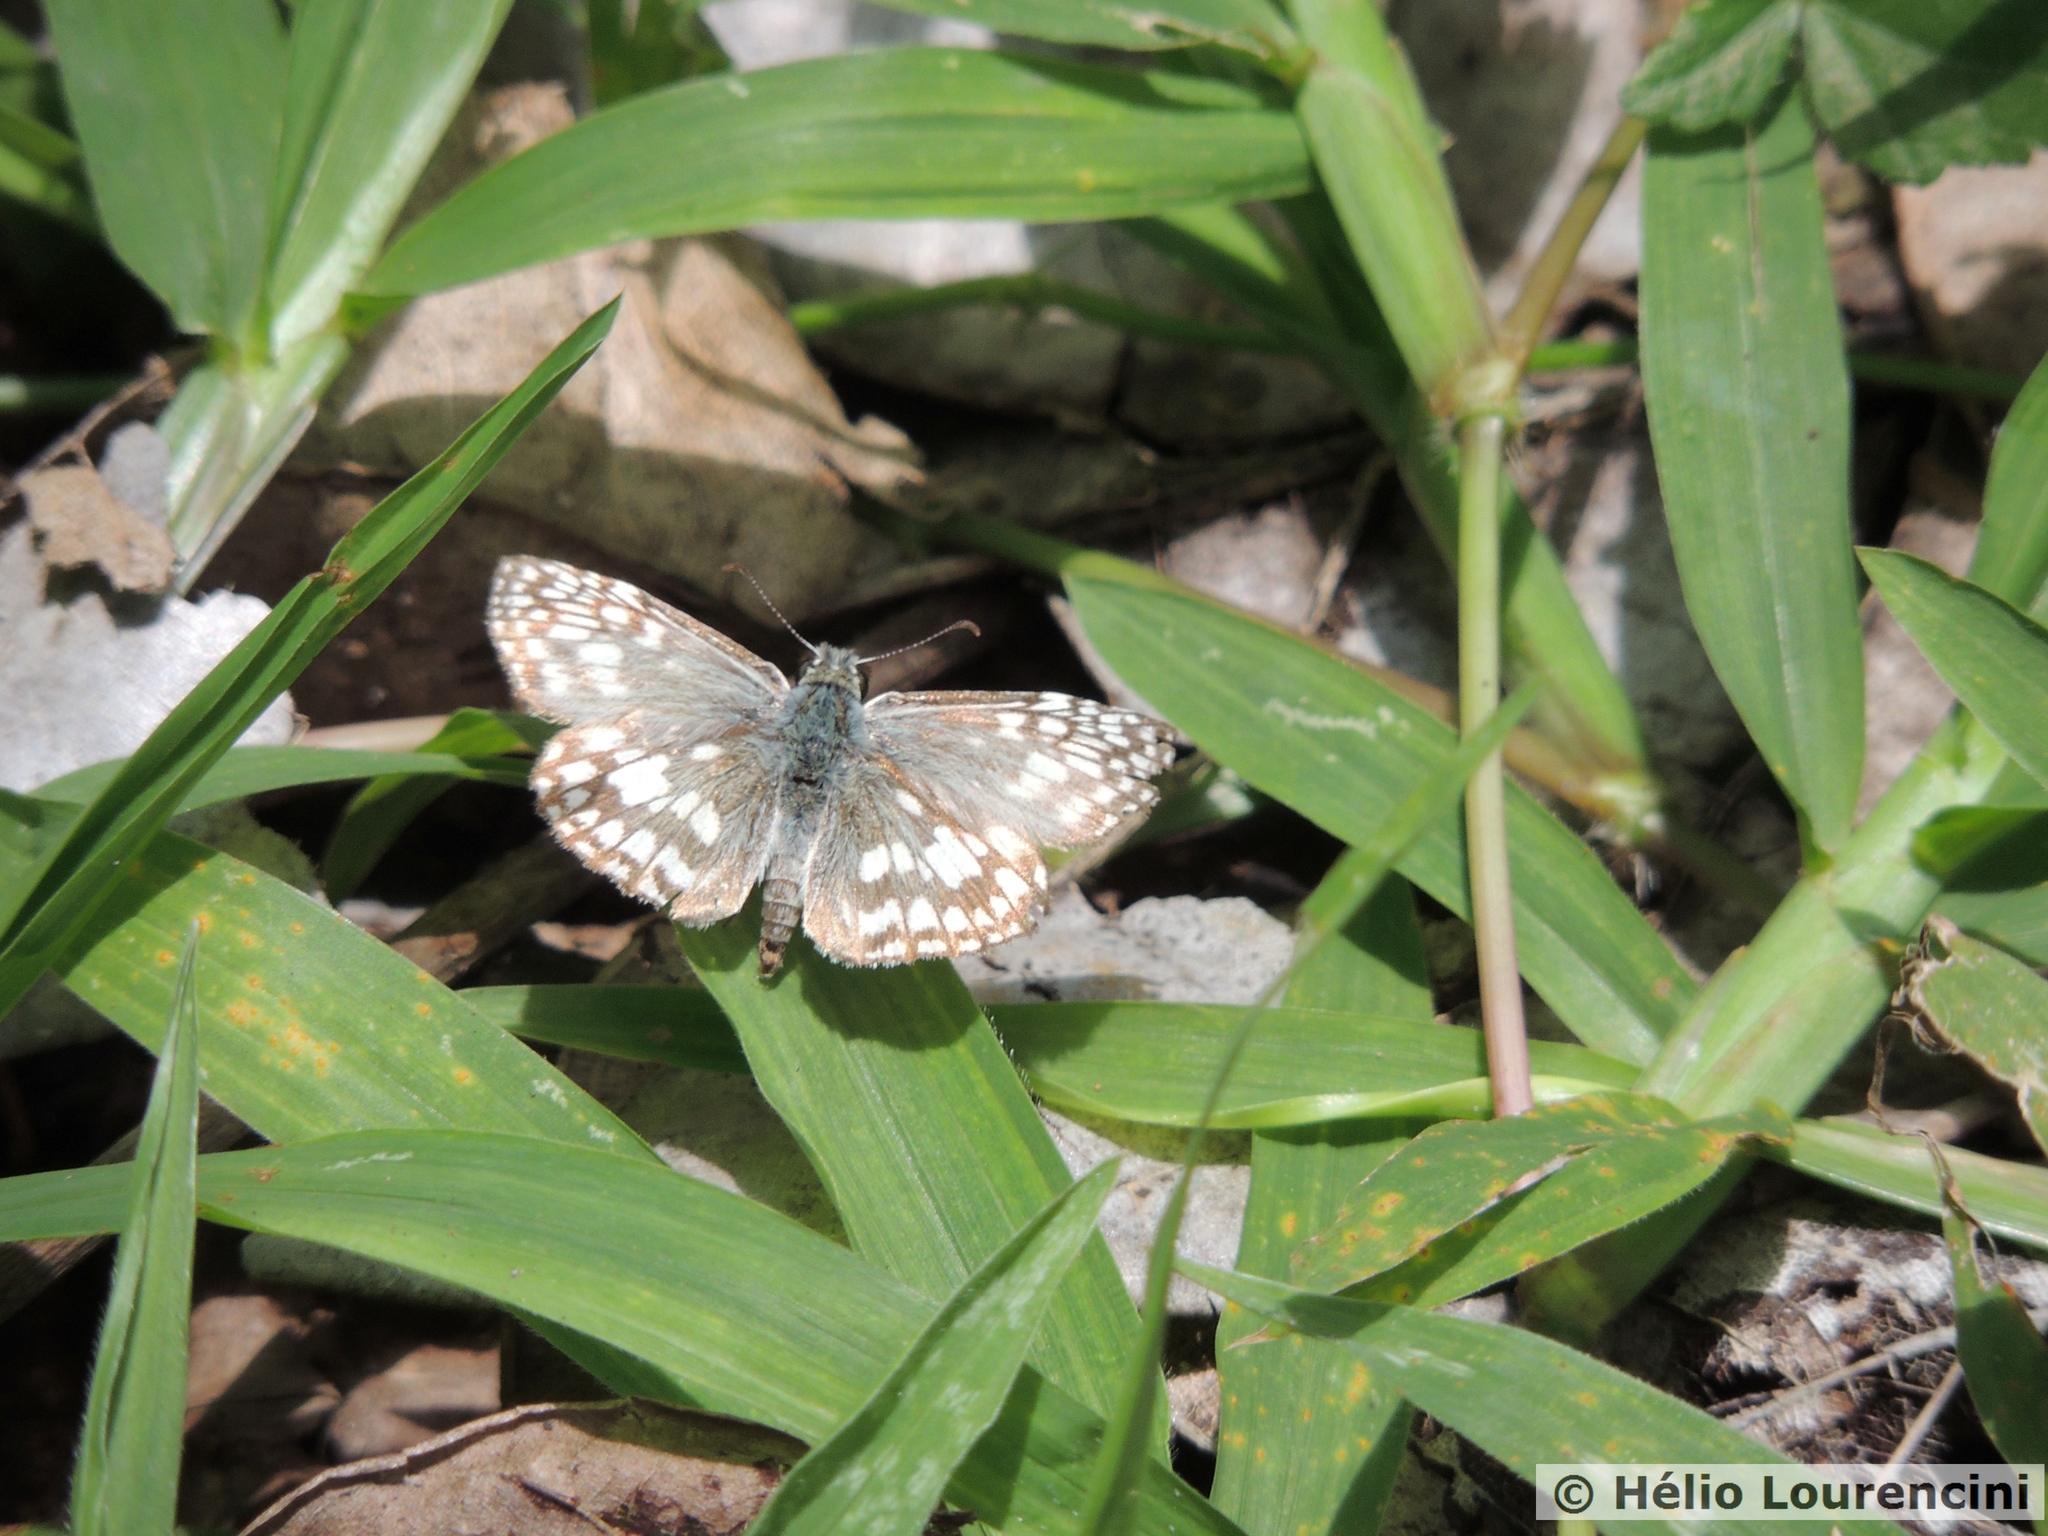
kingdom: Animalia
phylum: Arthropoda
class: Insecta
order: Lepidoptera
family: Hesperiidae
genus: Pyrgus
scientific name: Pyrgus oileus
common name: Tropical checkered-skipper
